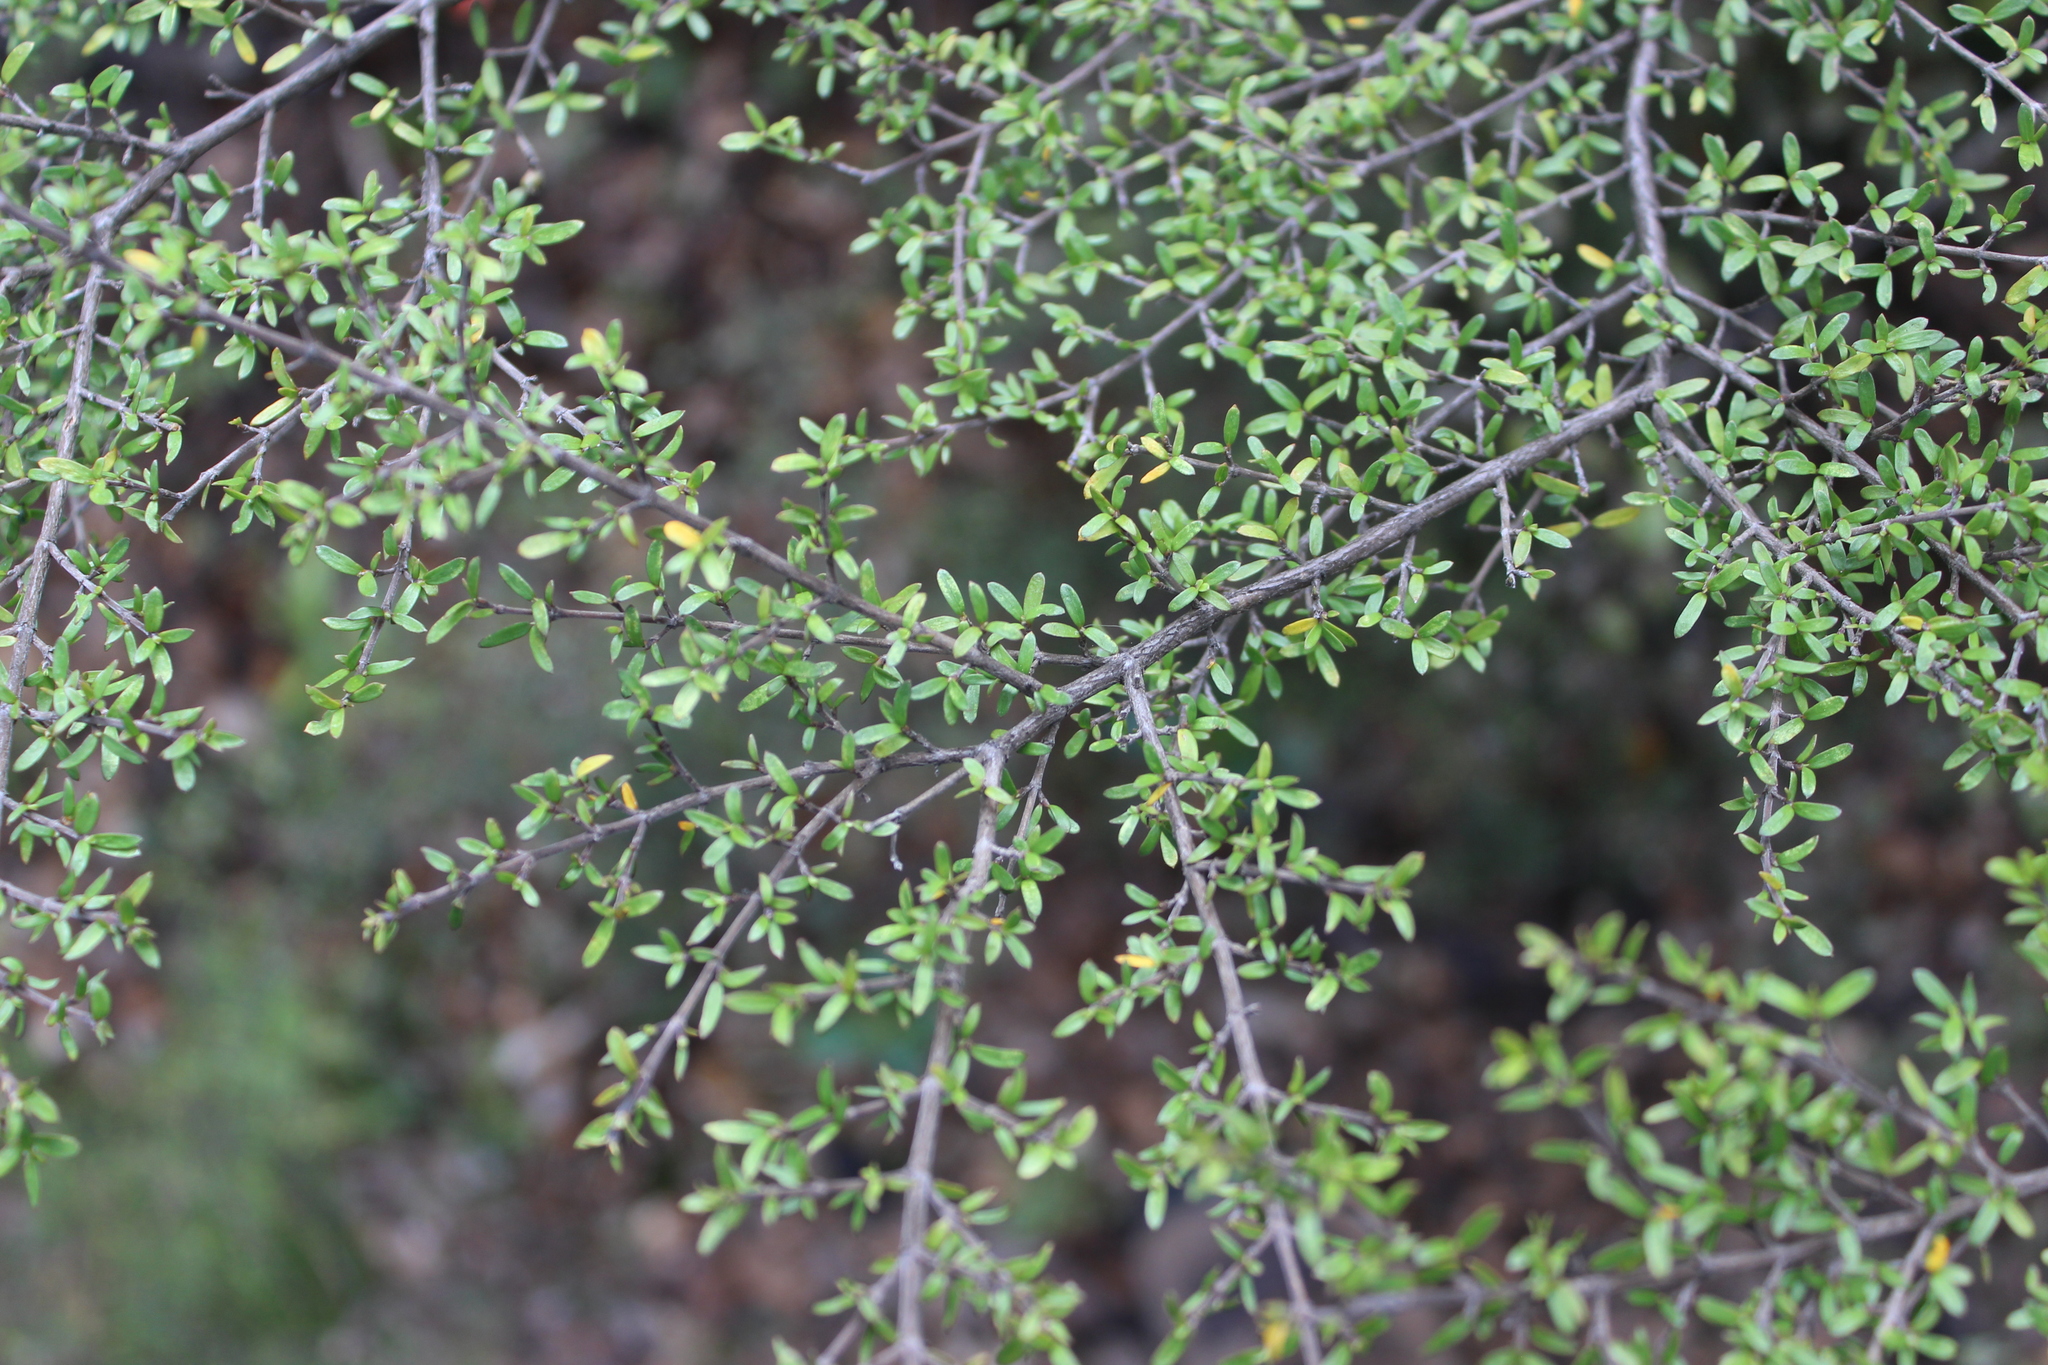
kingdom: Plantae
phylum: Tracheophyta
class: Magnoliopsida
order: Gentianales
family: Rubiaceae
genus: Coprosma
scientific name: Coprosma microcarpa
